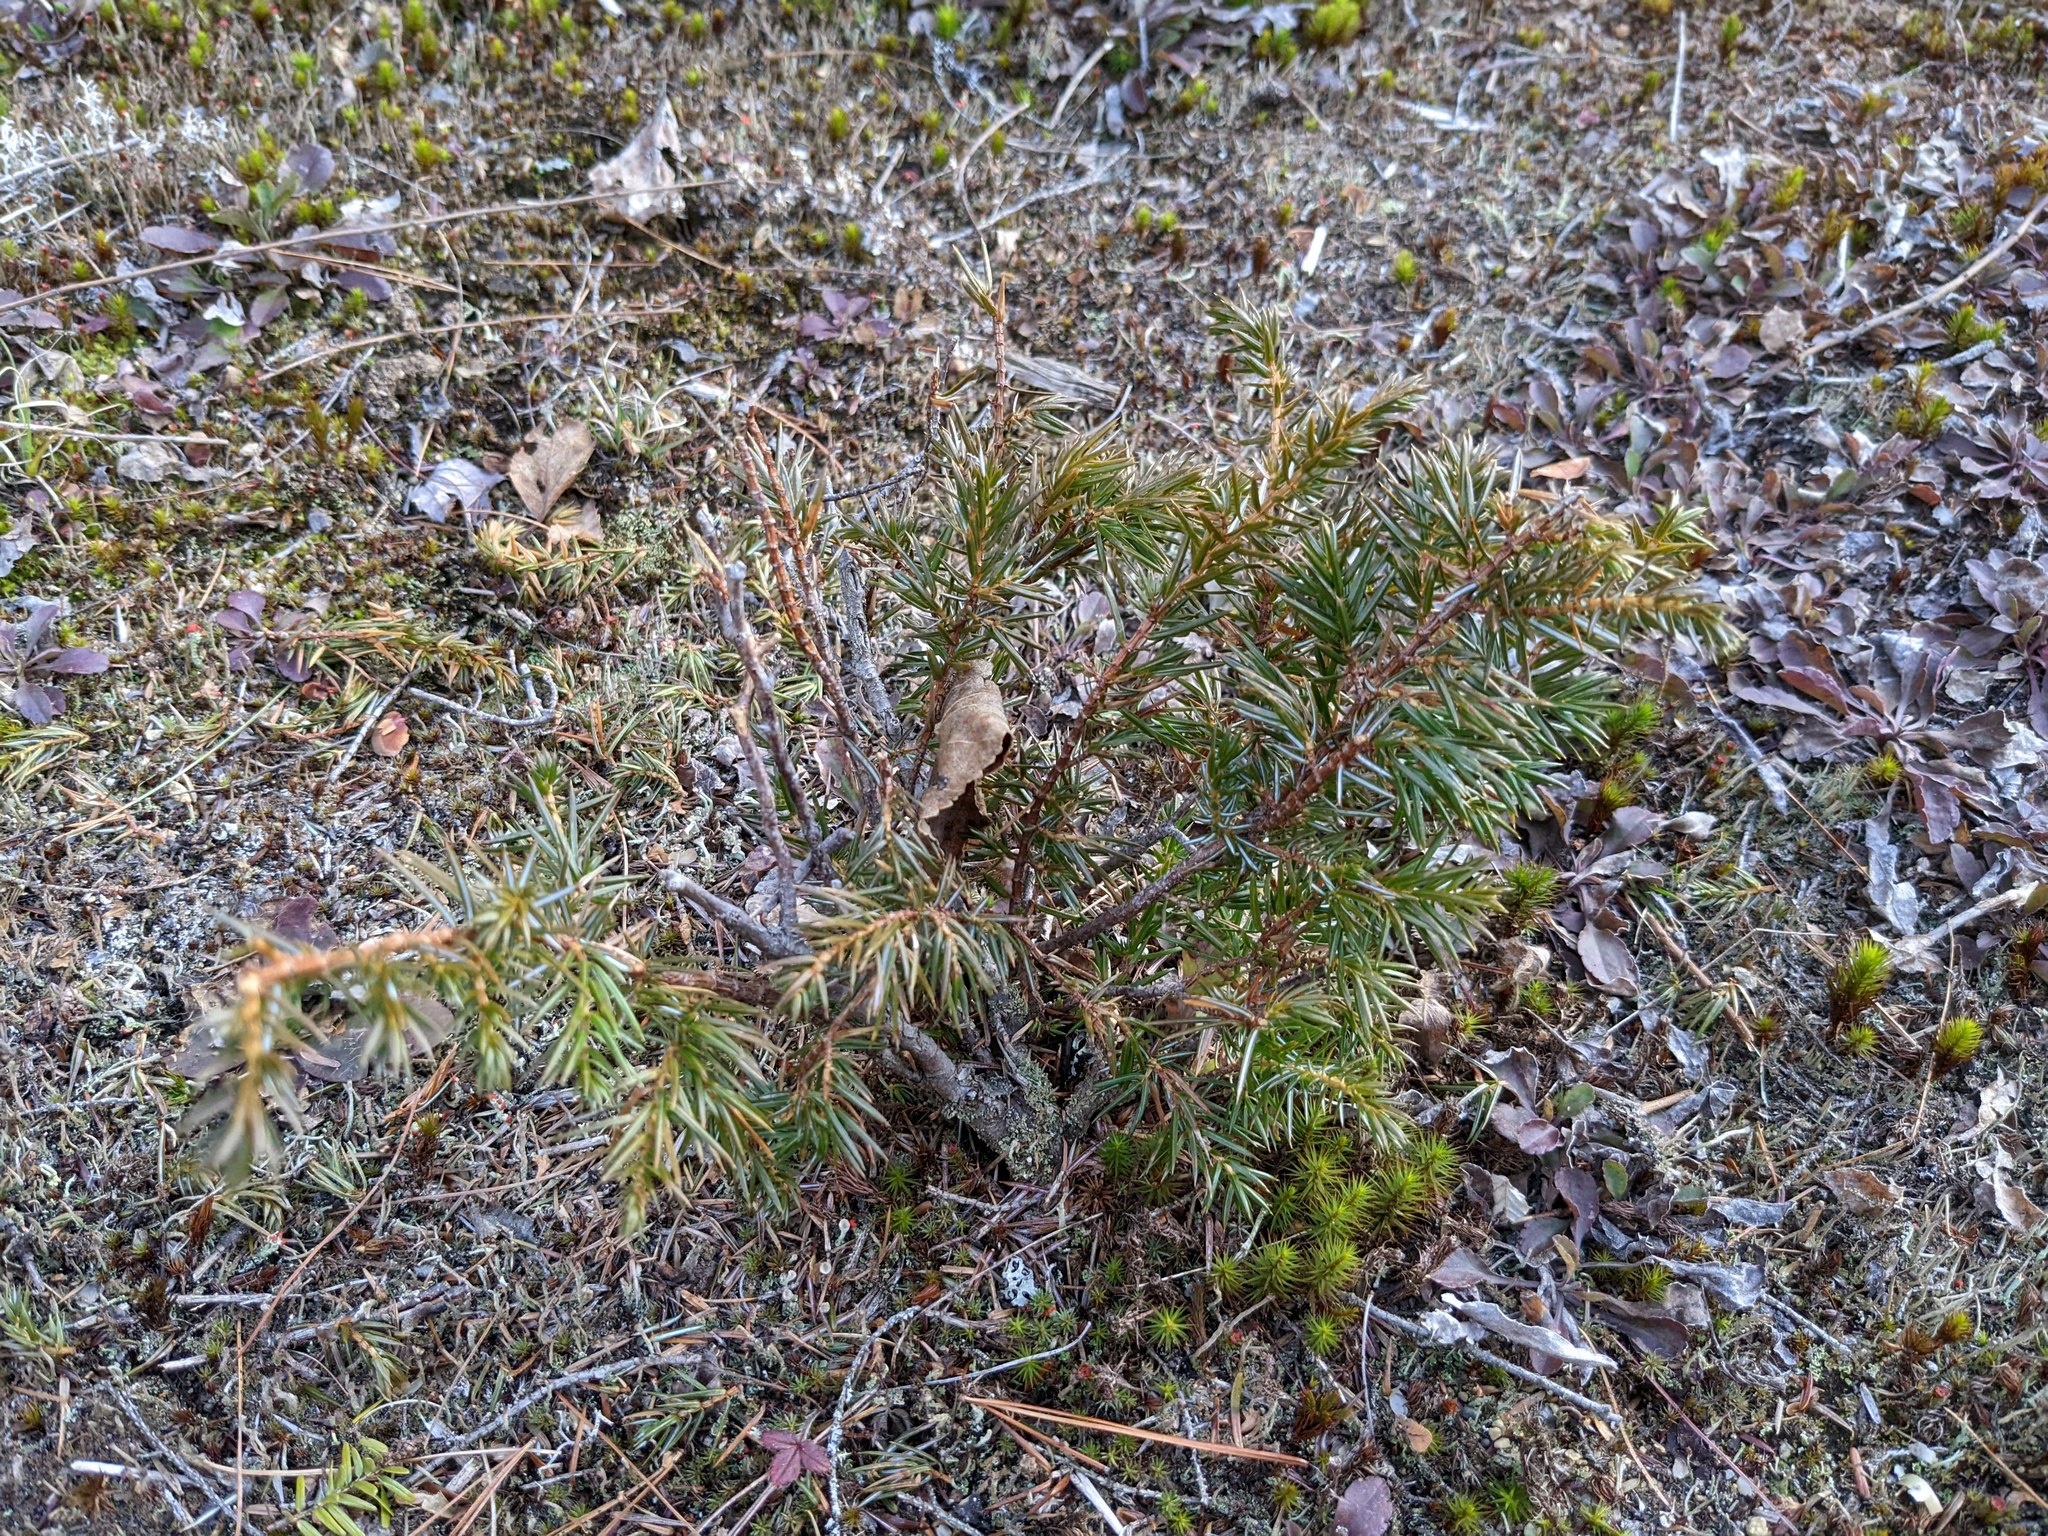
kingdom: Plantae
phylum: Tracheophyta
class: Pinopsida
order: Pinales
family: Cupressaceae
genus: Juniperus
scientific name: Juniperus communis
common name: Common juniper
